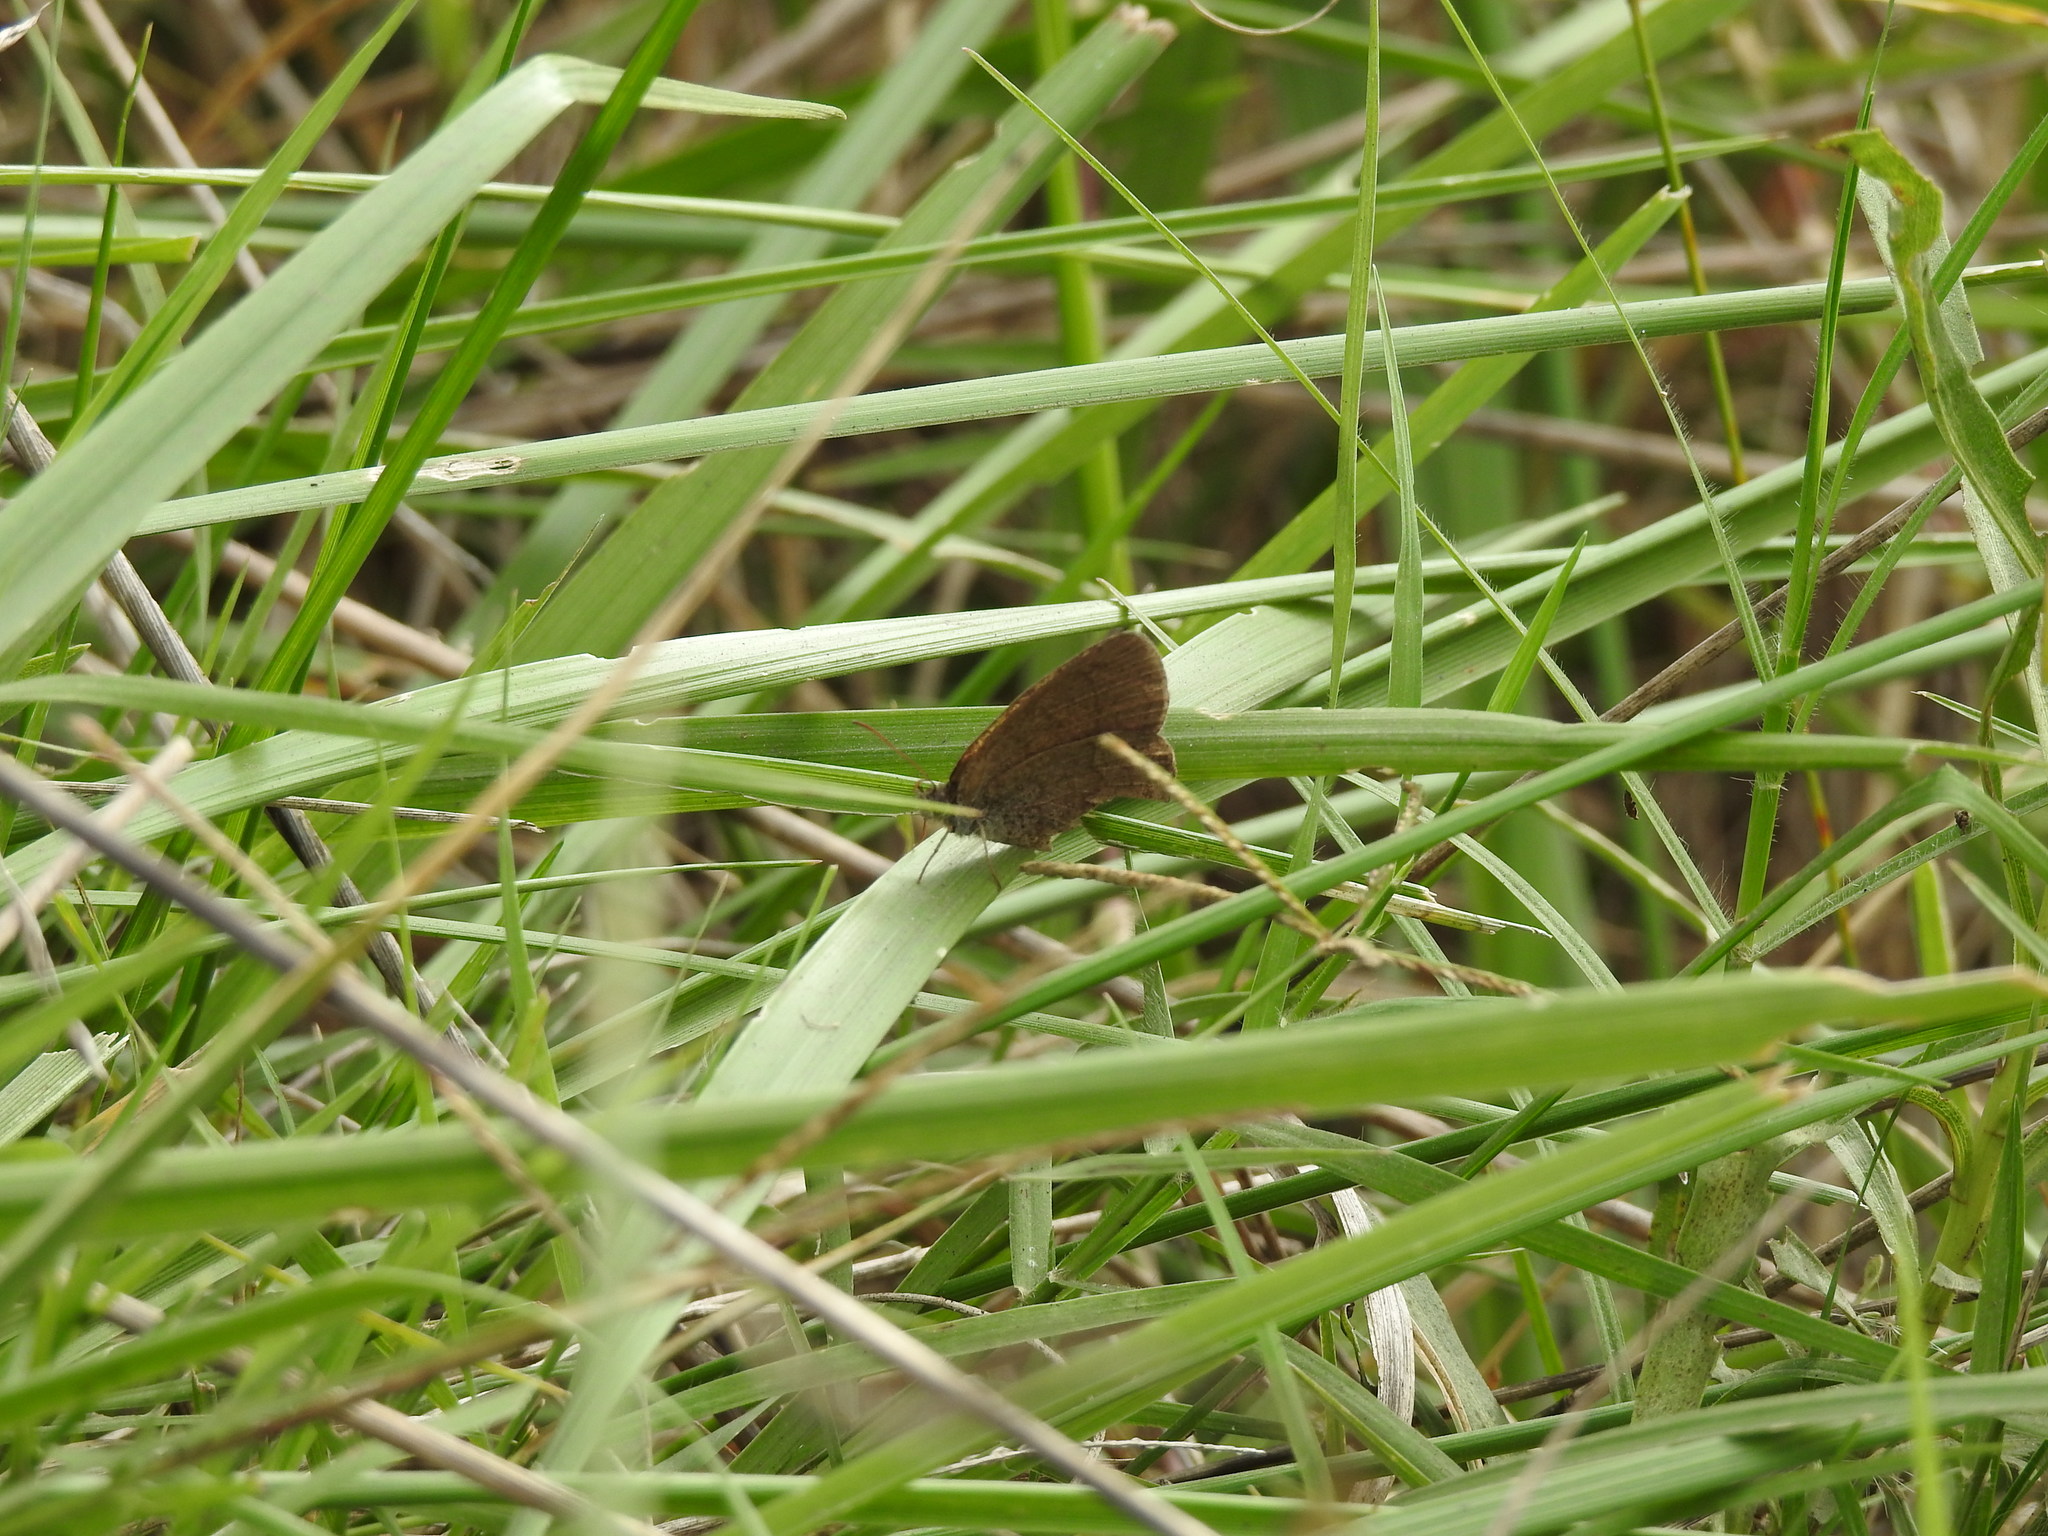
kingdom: Animalia
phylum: Arthropoda
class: Insecta
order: Lepidoptera
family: Nymphalidae
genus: Yphthimoides
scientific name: Yphthimoides celmis
